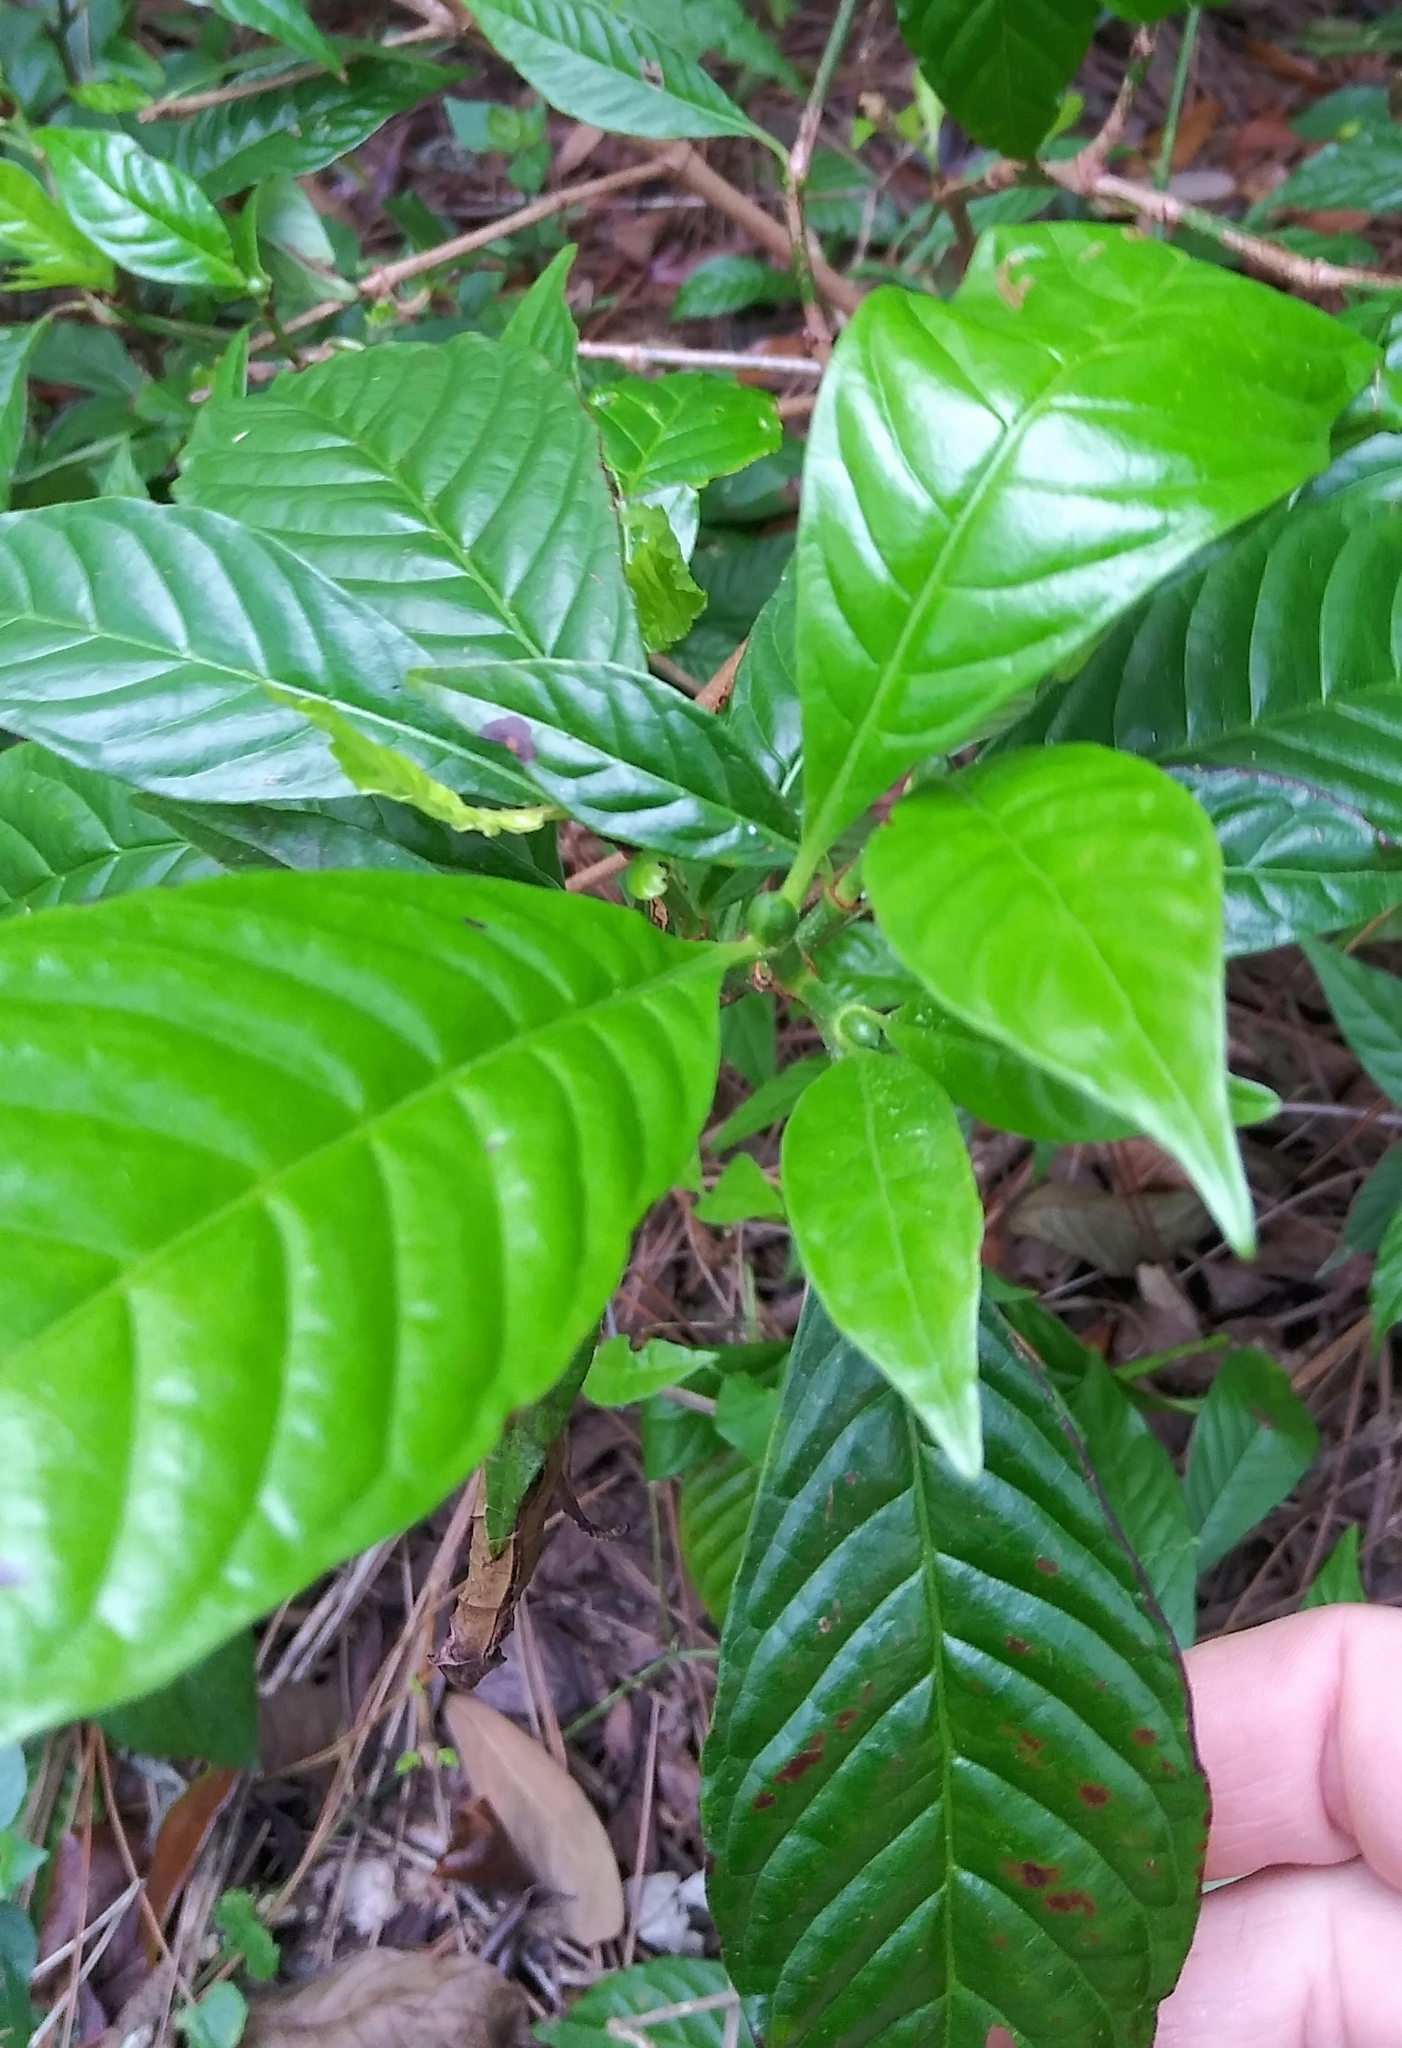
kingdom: Plantae
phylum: Tracheophyta
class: Magnoliopsida
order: Gentianales
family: Rubiaceae
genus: Psychotria
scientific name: Psychotria nervosa
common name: Bastard cankerberry
